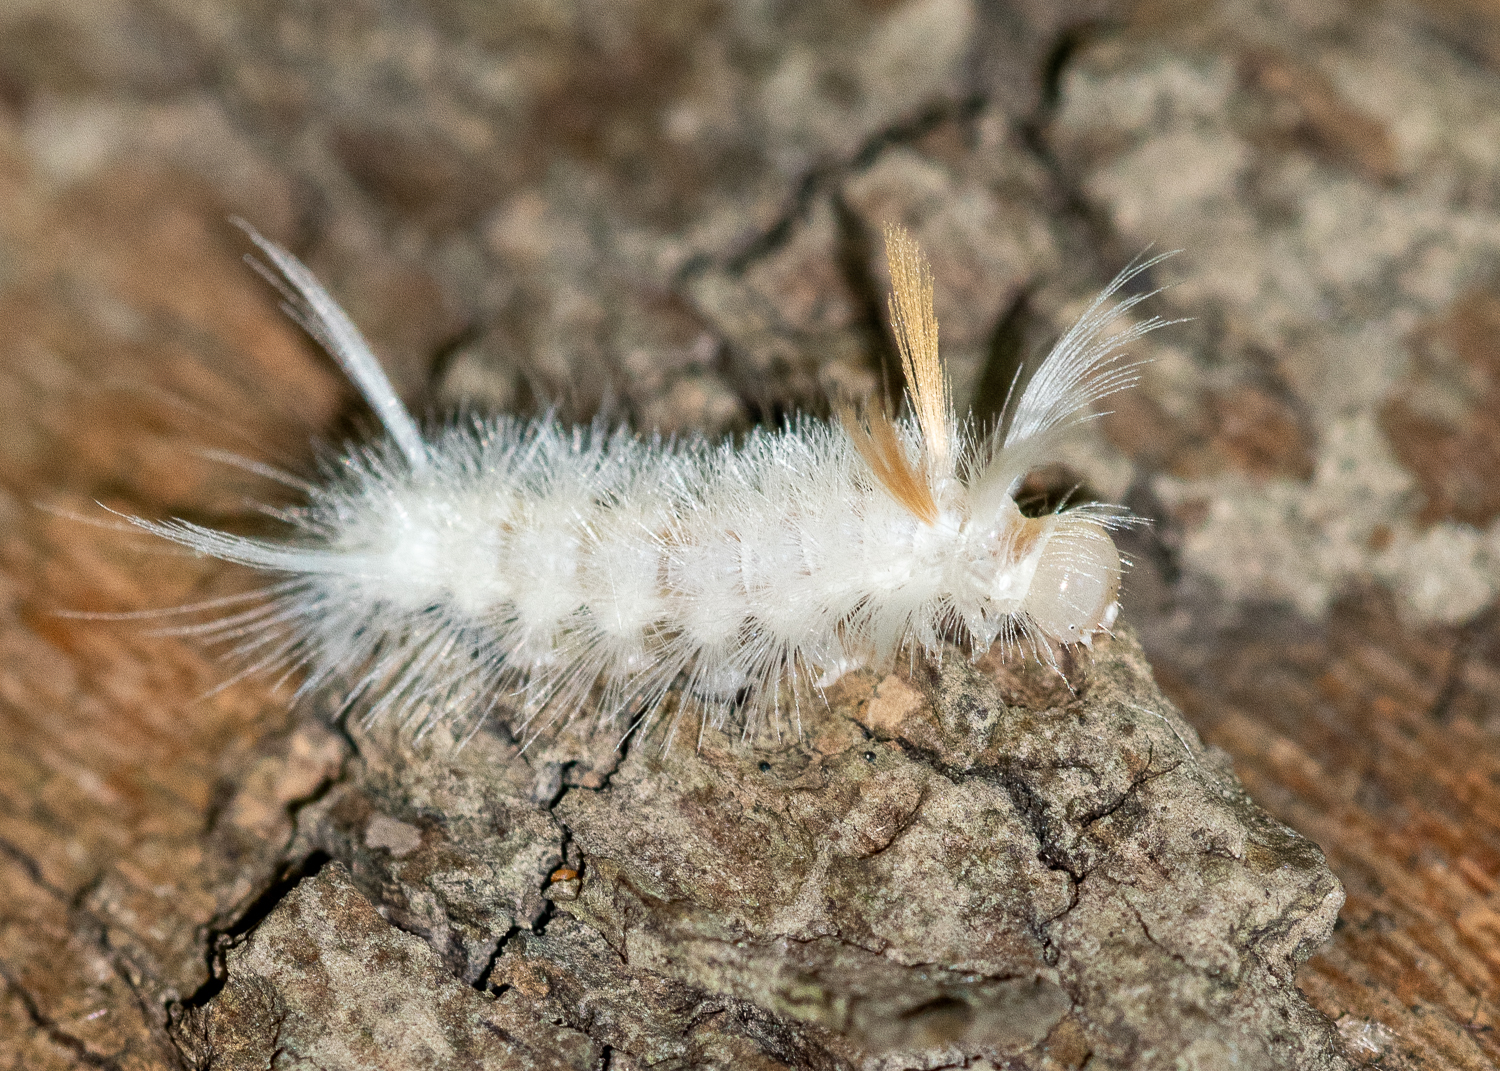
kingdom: Animalia
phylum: Arthropoda
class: Insecta
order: Lepidoptera
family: Erebidae
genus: Halysidota
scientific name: Halysidota harrisii
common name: Sycamore tussock moth
